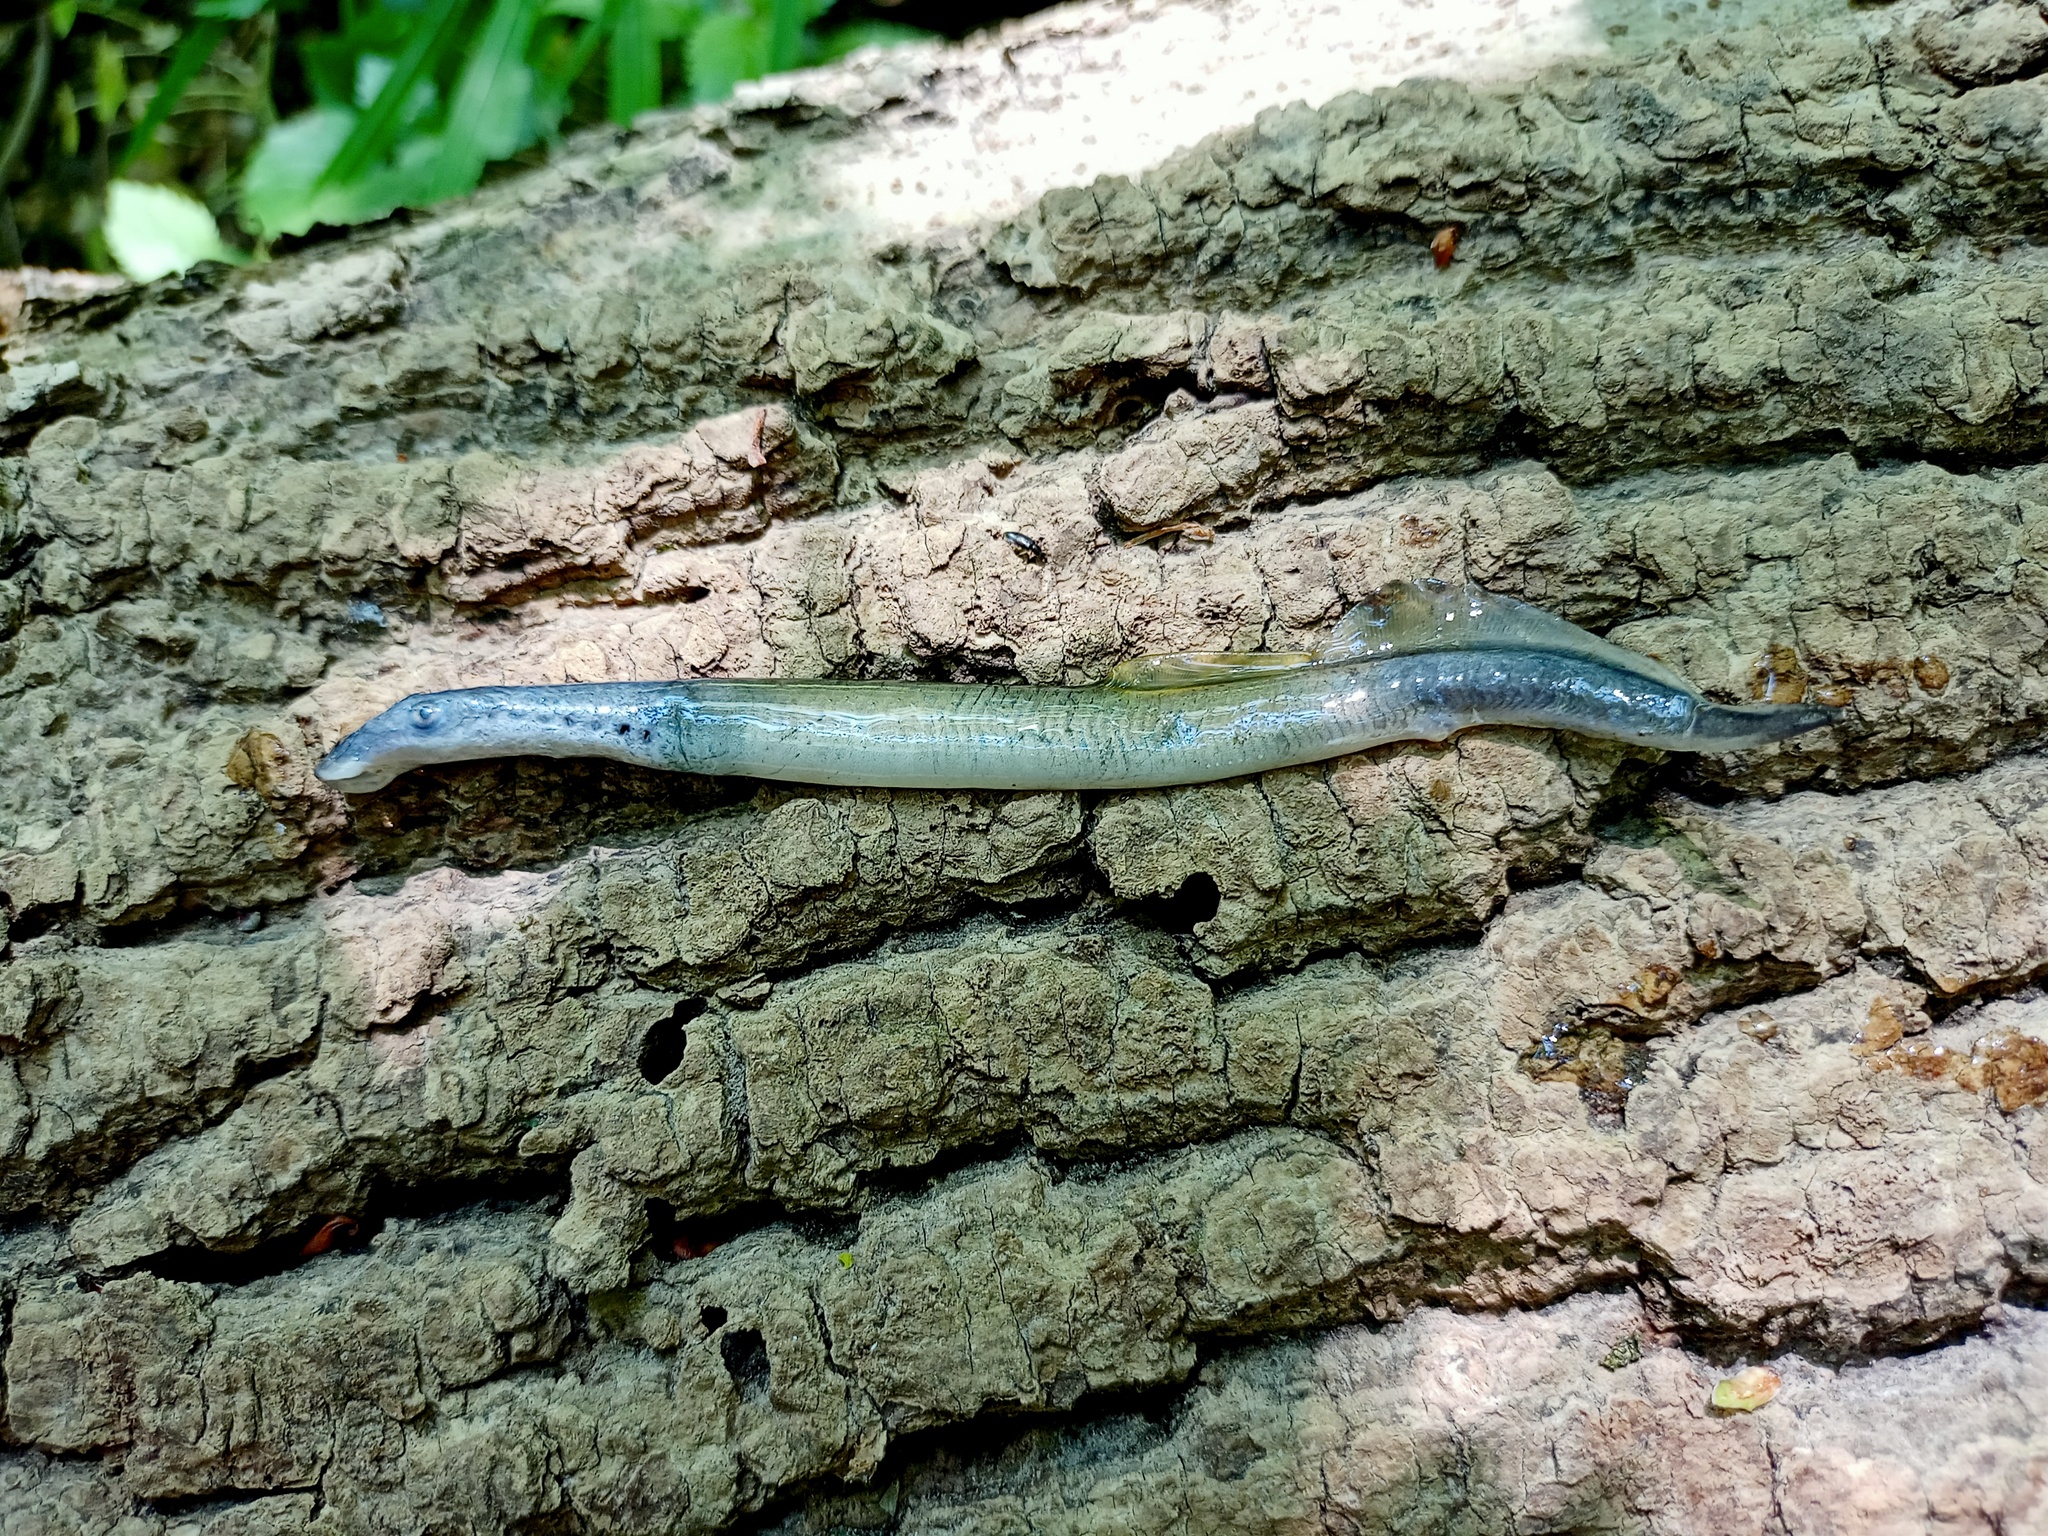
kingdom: Animalia
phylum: Chordata
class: Petromyzonti
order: Petromyzontiformes
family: Petromyzontidae
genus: Lampetra
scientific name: Lampetra planeri
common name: Brook lamprey
